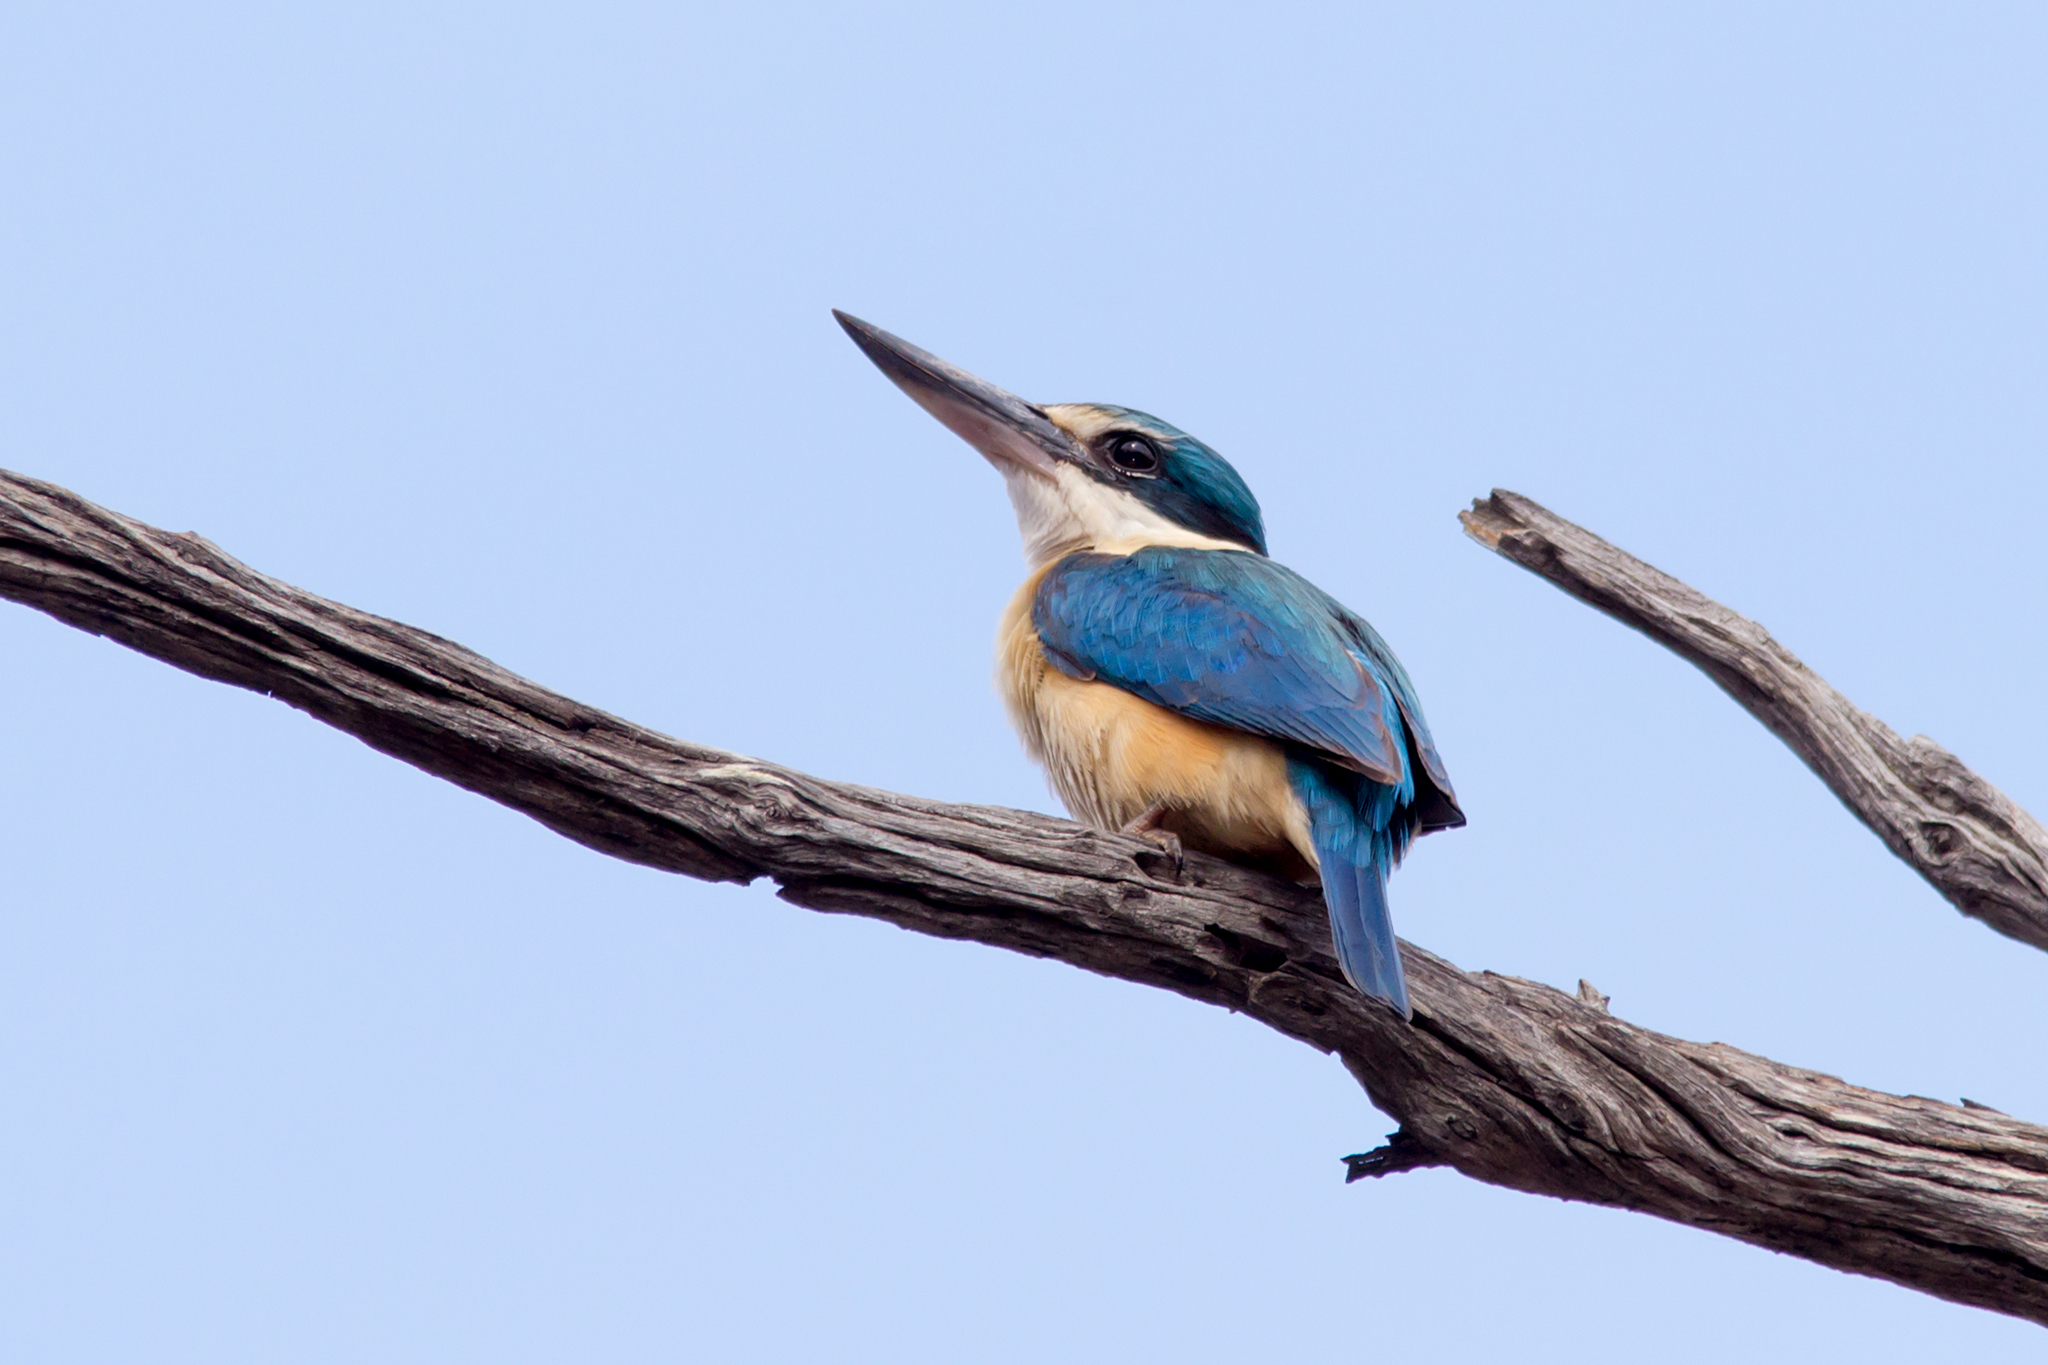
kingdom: Animalia
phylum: Chordata
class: Aves
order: Coraciiformes
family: Alcedinidae
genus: Todiramphus
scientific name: Todiramphus sanctus
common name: Sacred kingfisher
